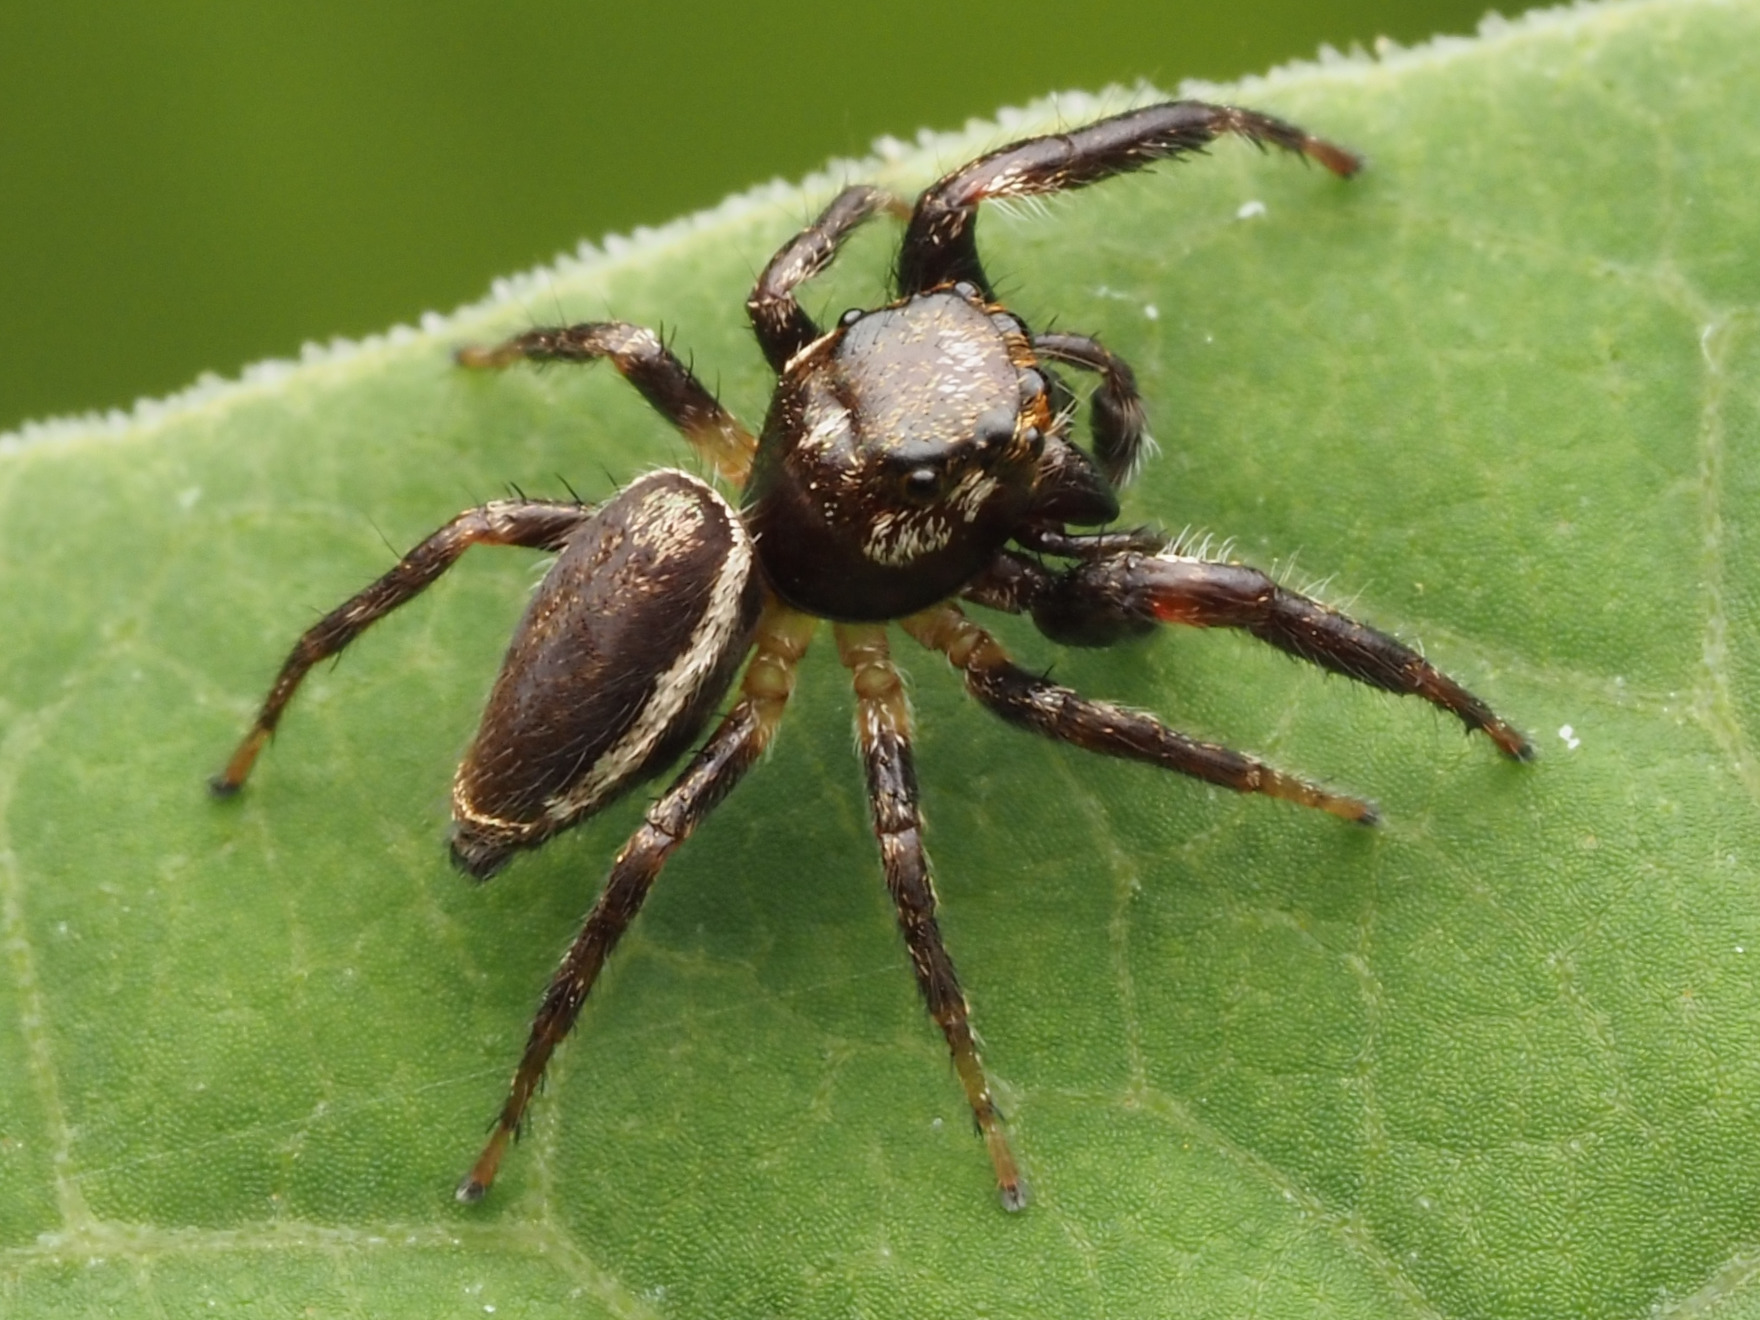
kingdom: Animalia
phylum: Arthropoda
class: Arachnida
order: Araneae
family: Salticidae
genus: Eris
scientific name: Eris militaris
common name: Bronze jumper
